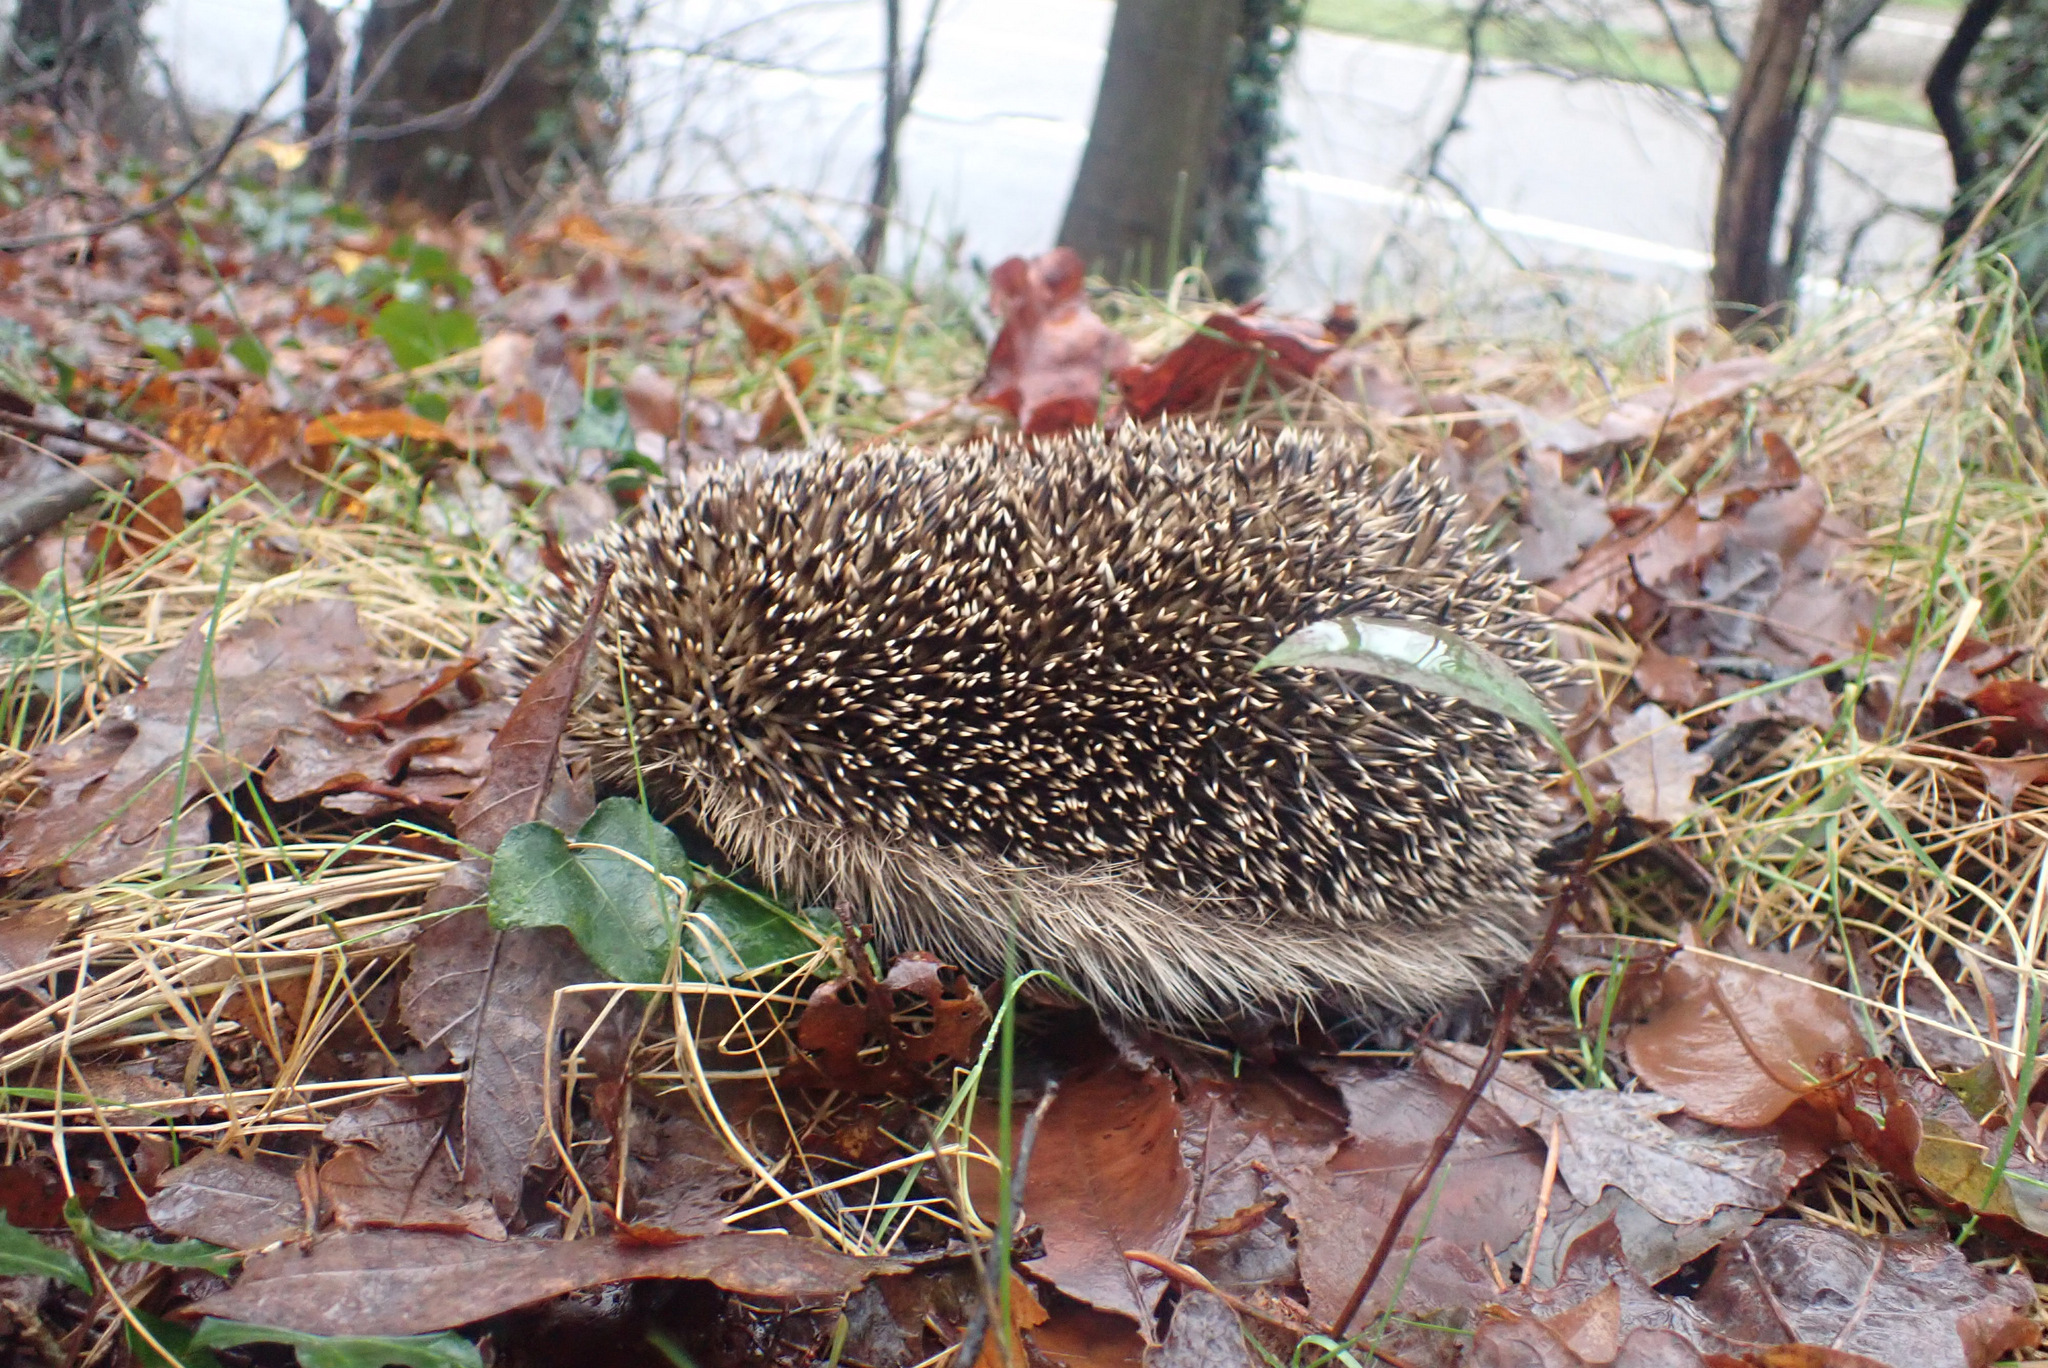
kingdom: Animalia
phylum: Chordata
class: Mammalia
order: Erinaceomorpha
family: Erinaceidae
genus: Erinaceus
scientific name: Erinaceus europaeus
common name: West european hedgehog
